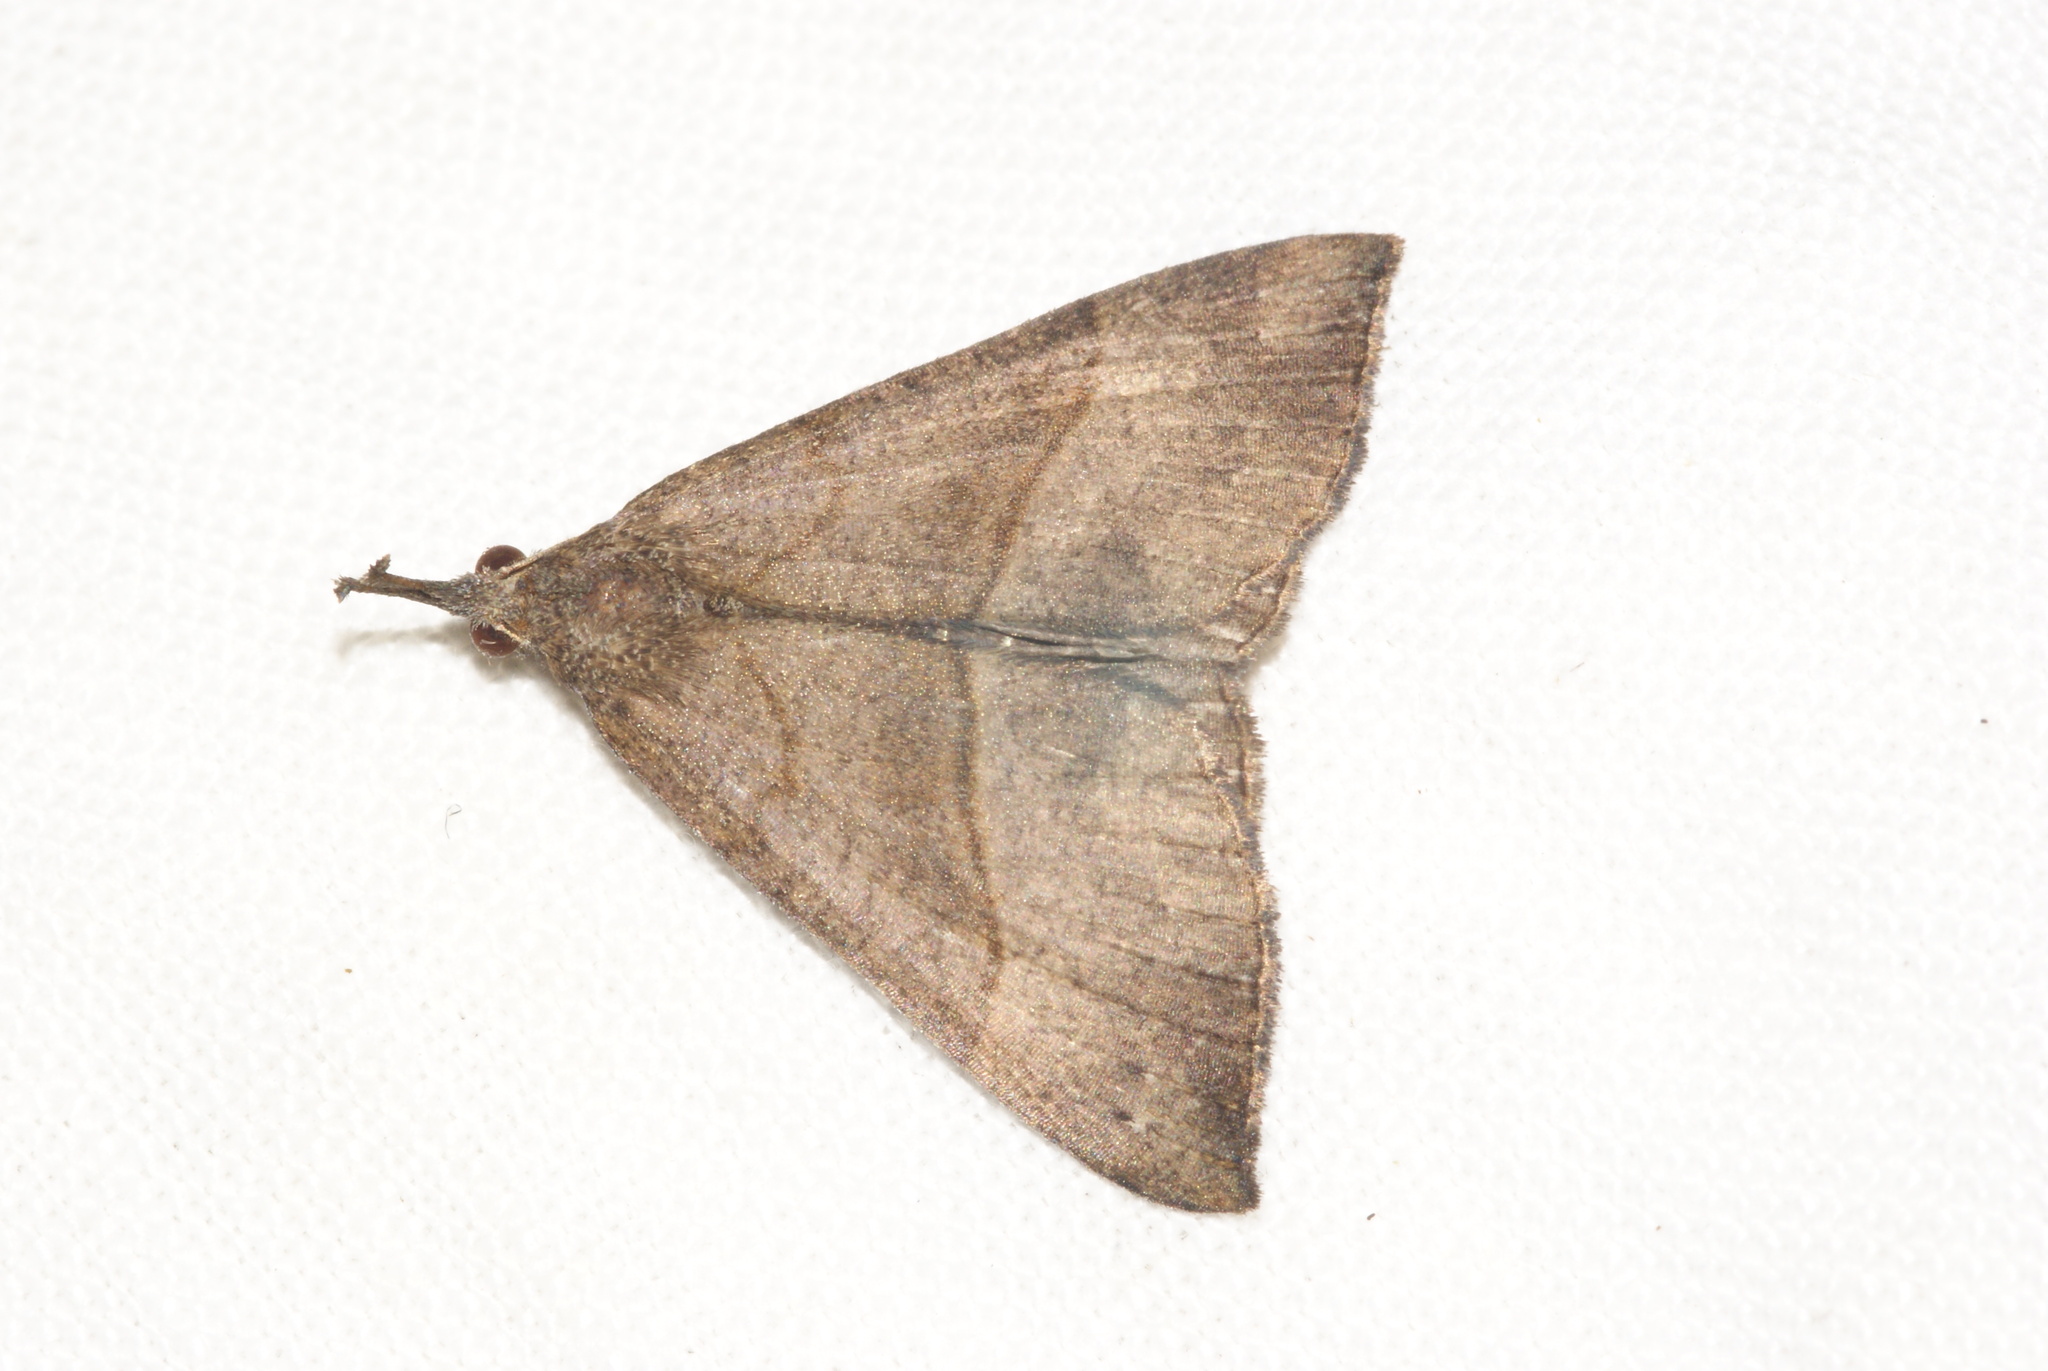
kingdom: Animalia
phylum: Arthropoda
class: Insecta
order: Lepidoptera
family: Erebidae
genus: Hypena
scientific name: Hypena proboscidalis
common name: Snout
